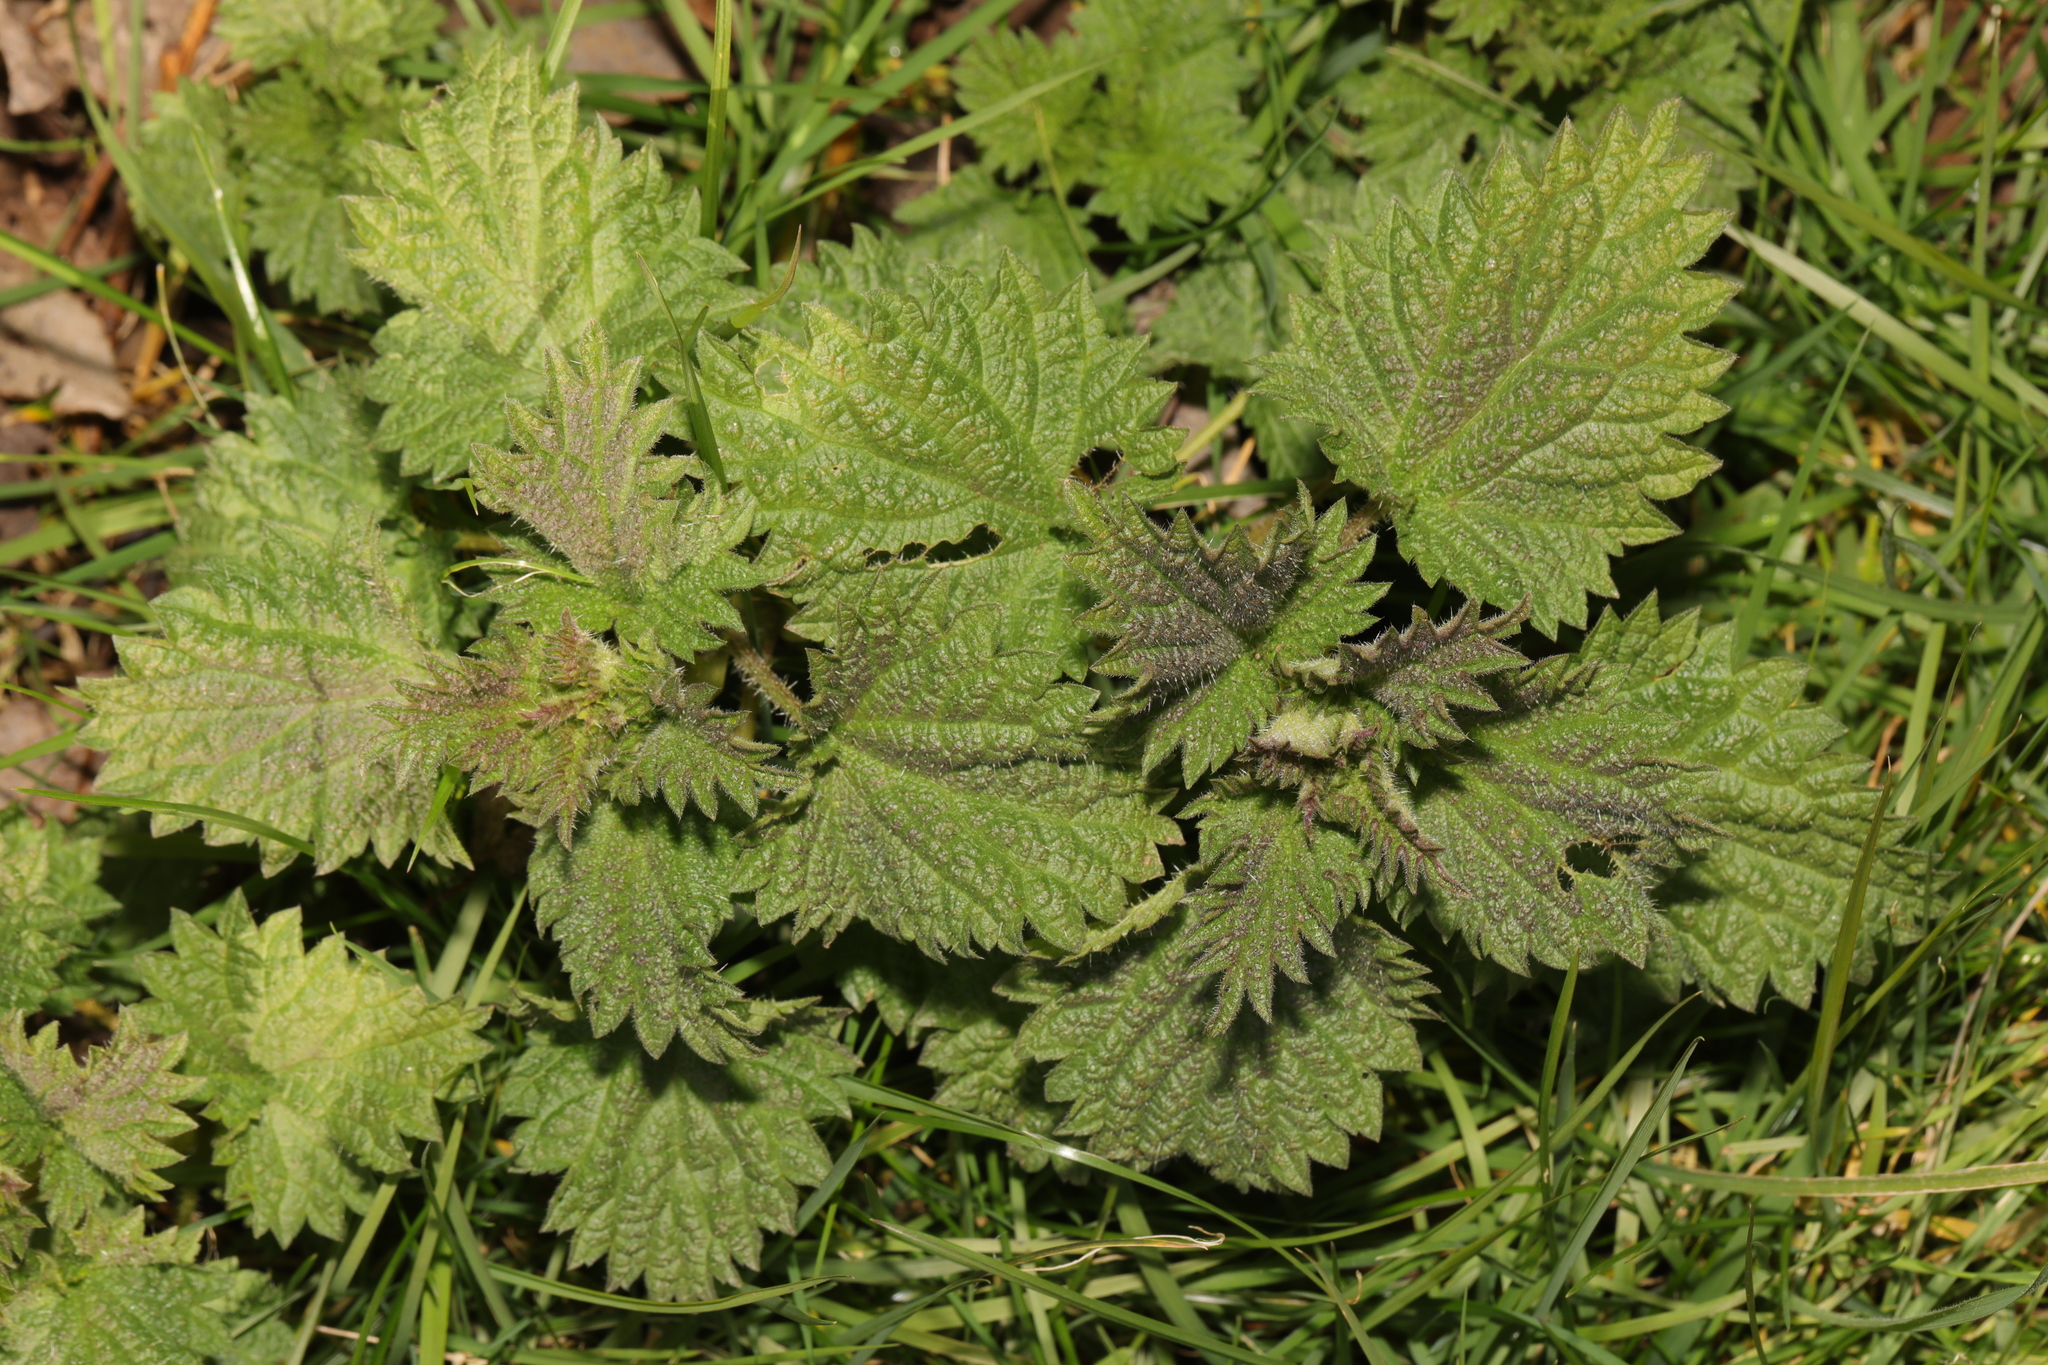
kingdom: Plantae
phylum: Tracheophyta
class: Magnoliopsida
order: Rosales
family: Urticaceae
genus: Urtica
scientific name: Urtica dioica
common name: Common nettle
